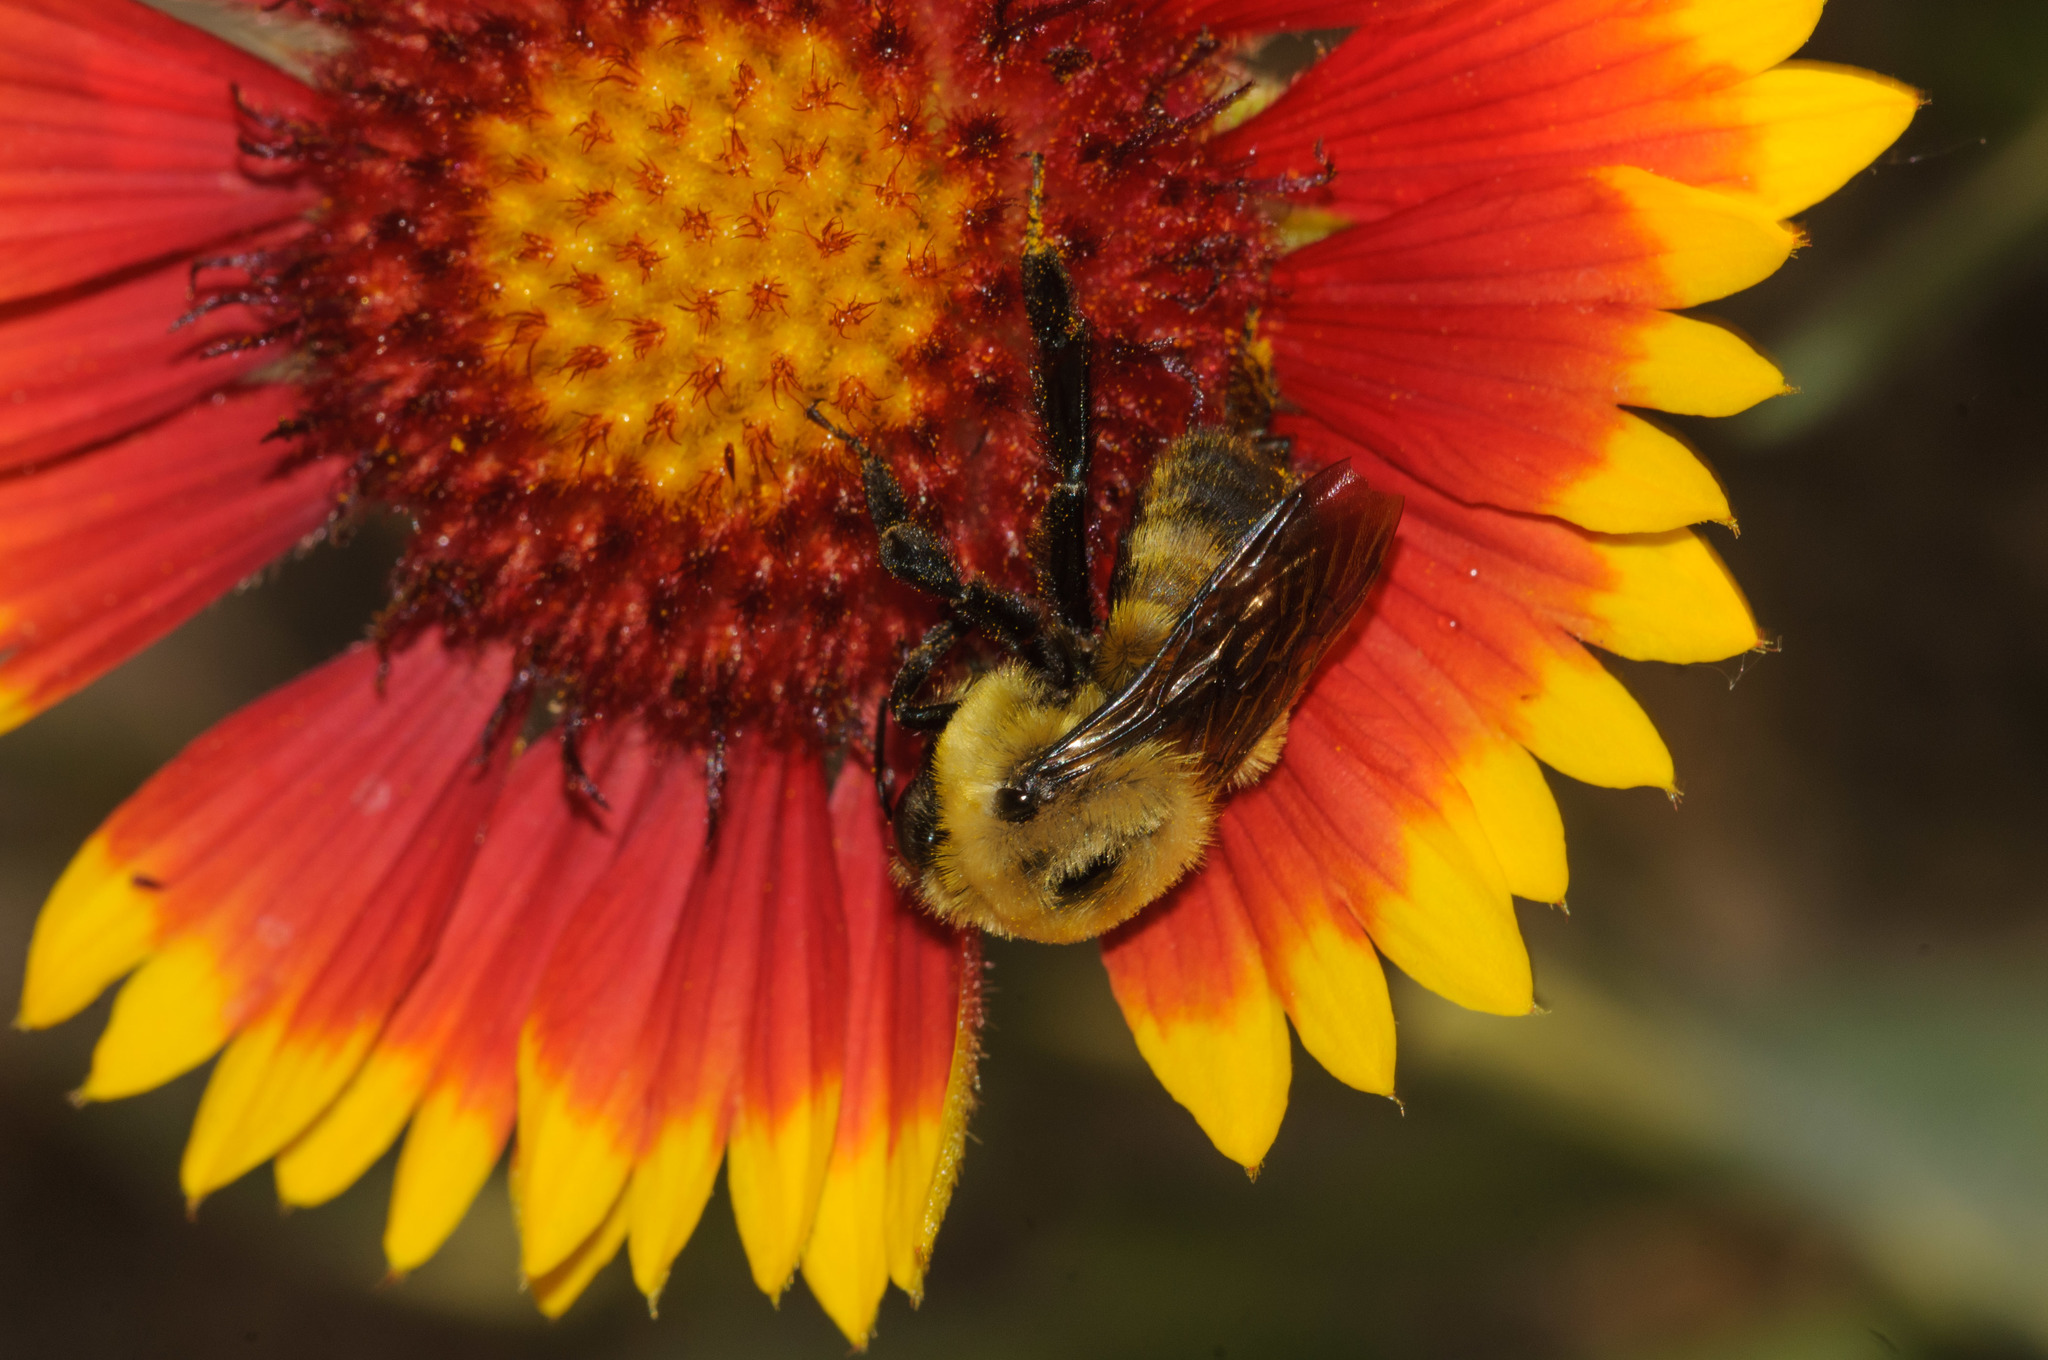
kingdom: Animalia
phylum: Arthropoda
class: Insecta
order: Hymenoptera
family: Apidae
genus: Bombus
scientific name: Bombus griseocollis
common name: Brown-belted bumble bee
